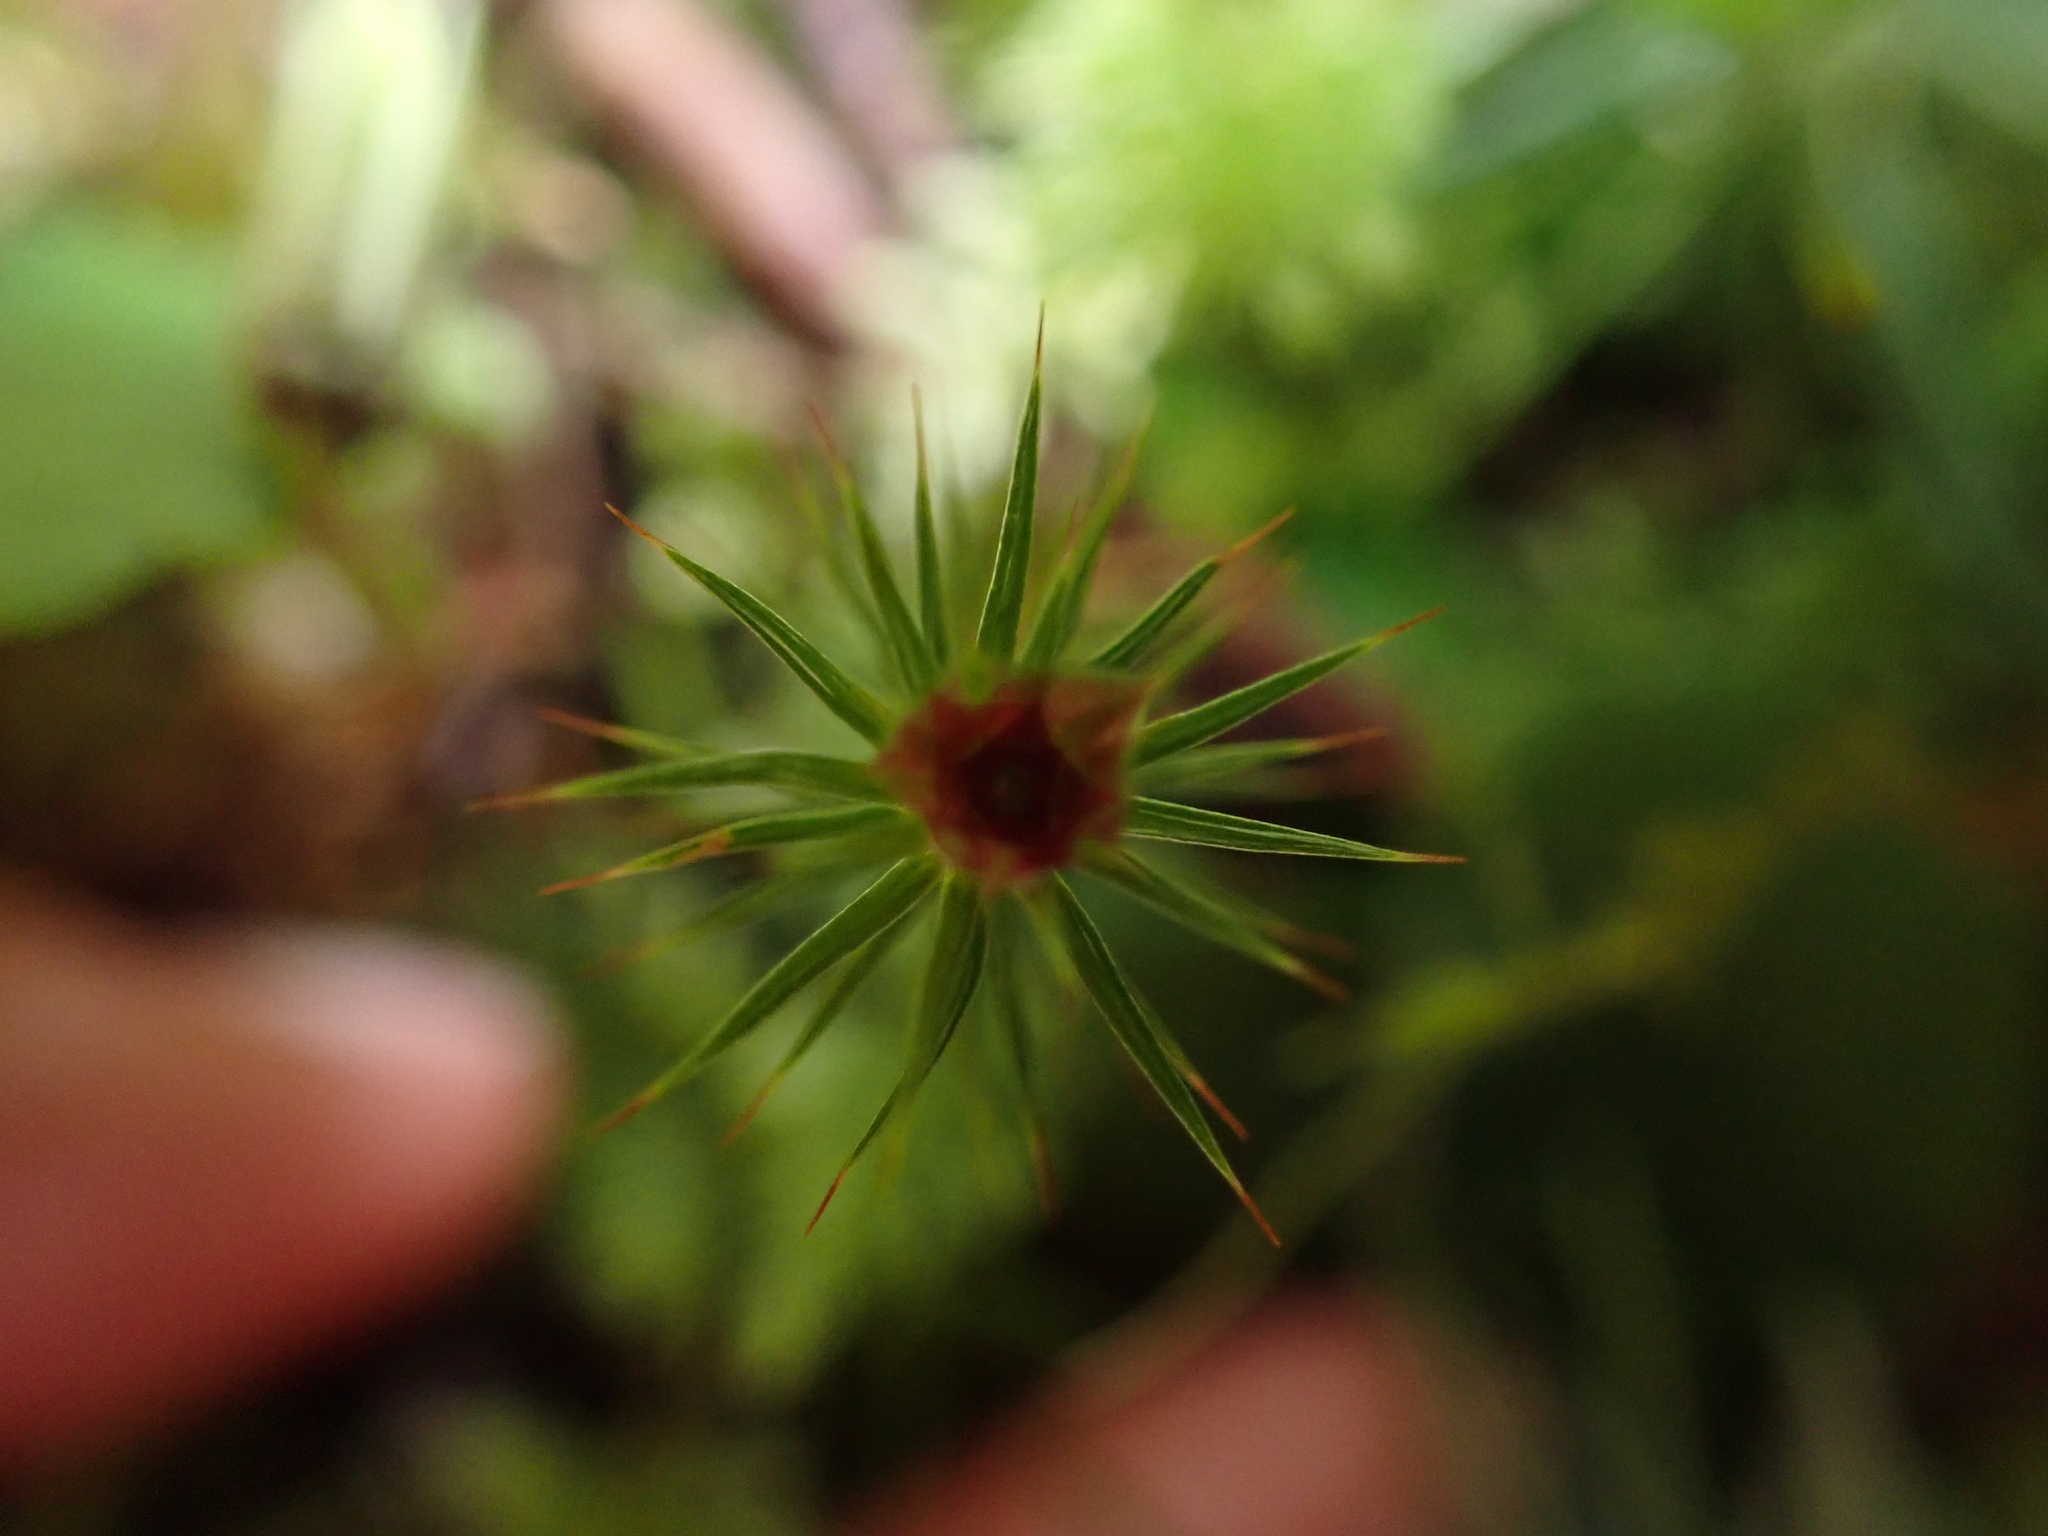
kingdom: Plantae
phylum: Bryophyta
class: Polytrichopsida
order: Polytrichales
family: Polytrichaceae
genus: Polytrichum
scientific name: Polytrichum juniperinum
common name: Juniper haircap moss
